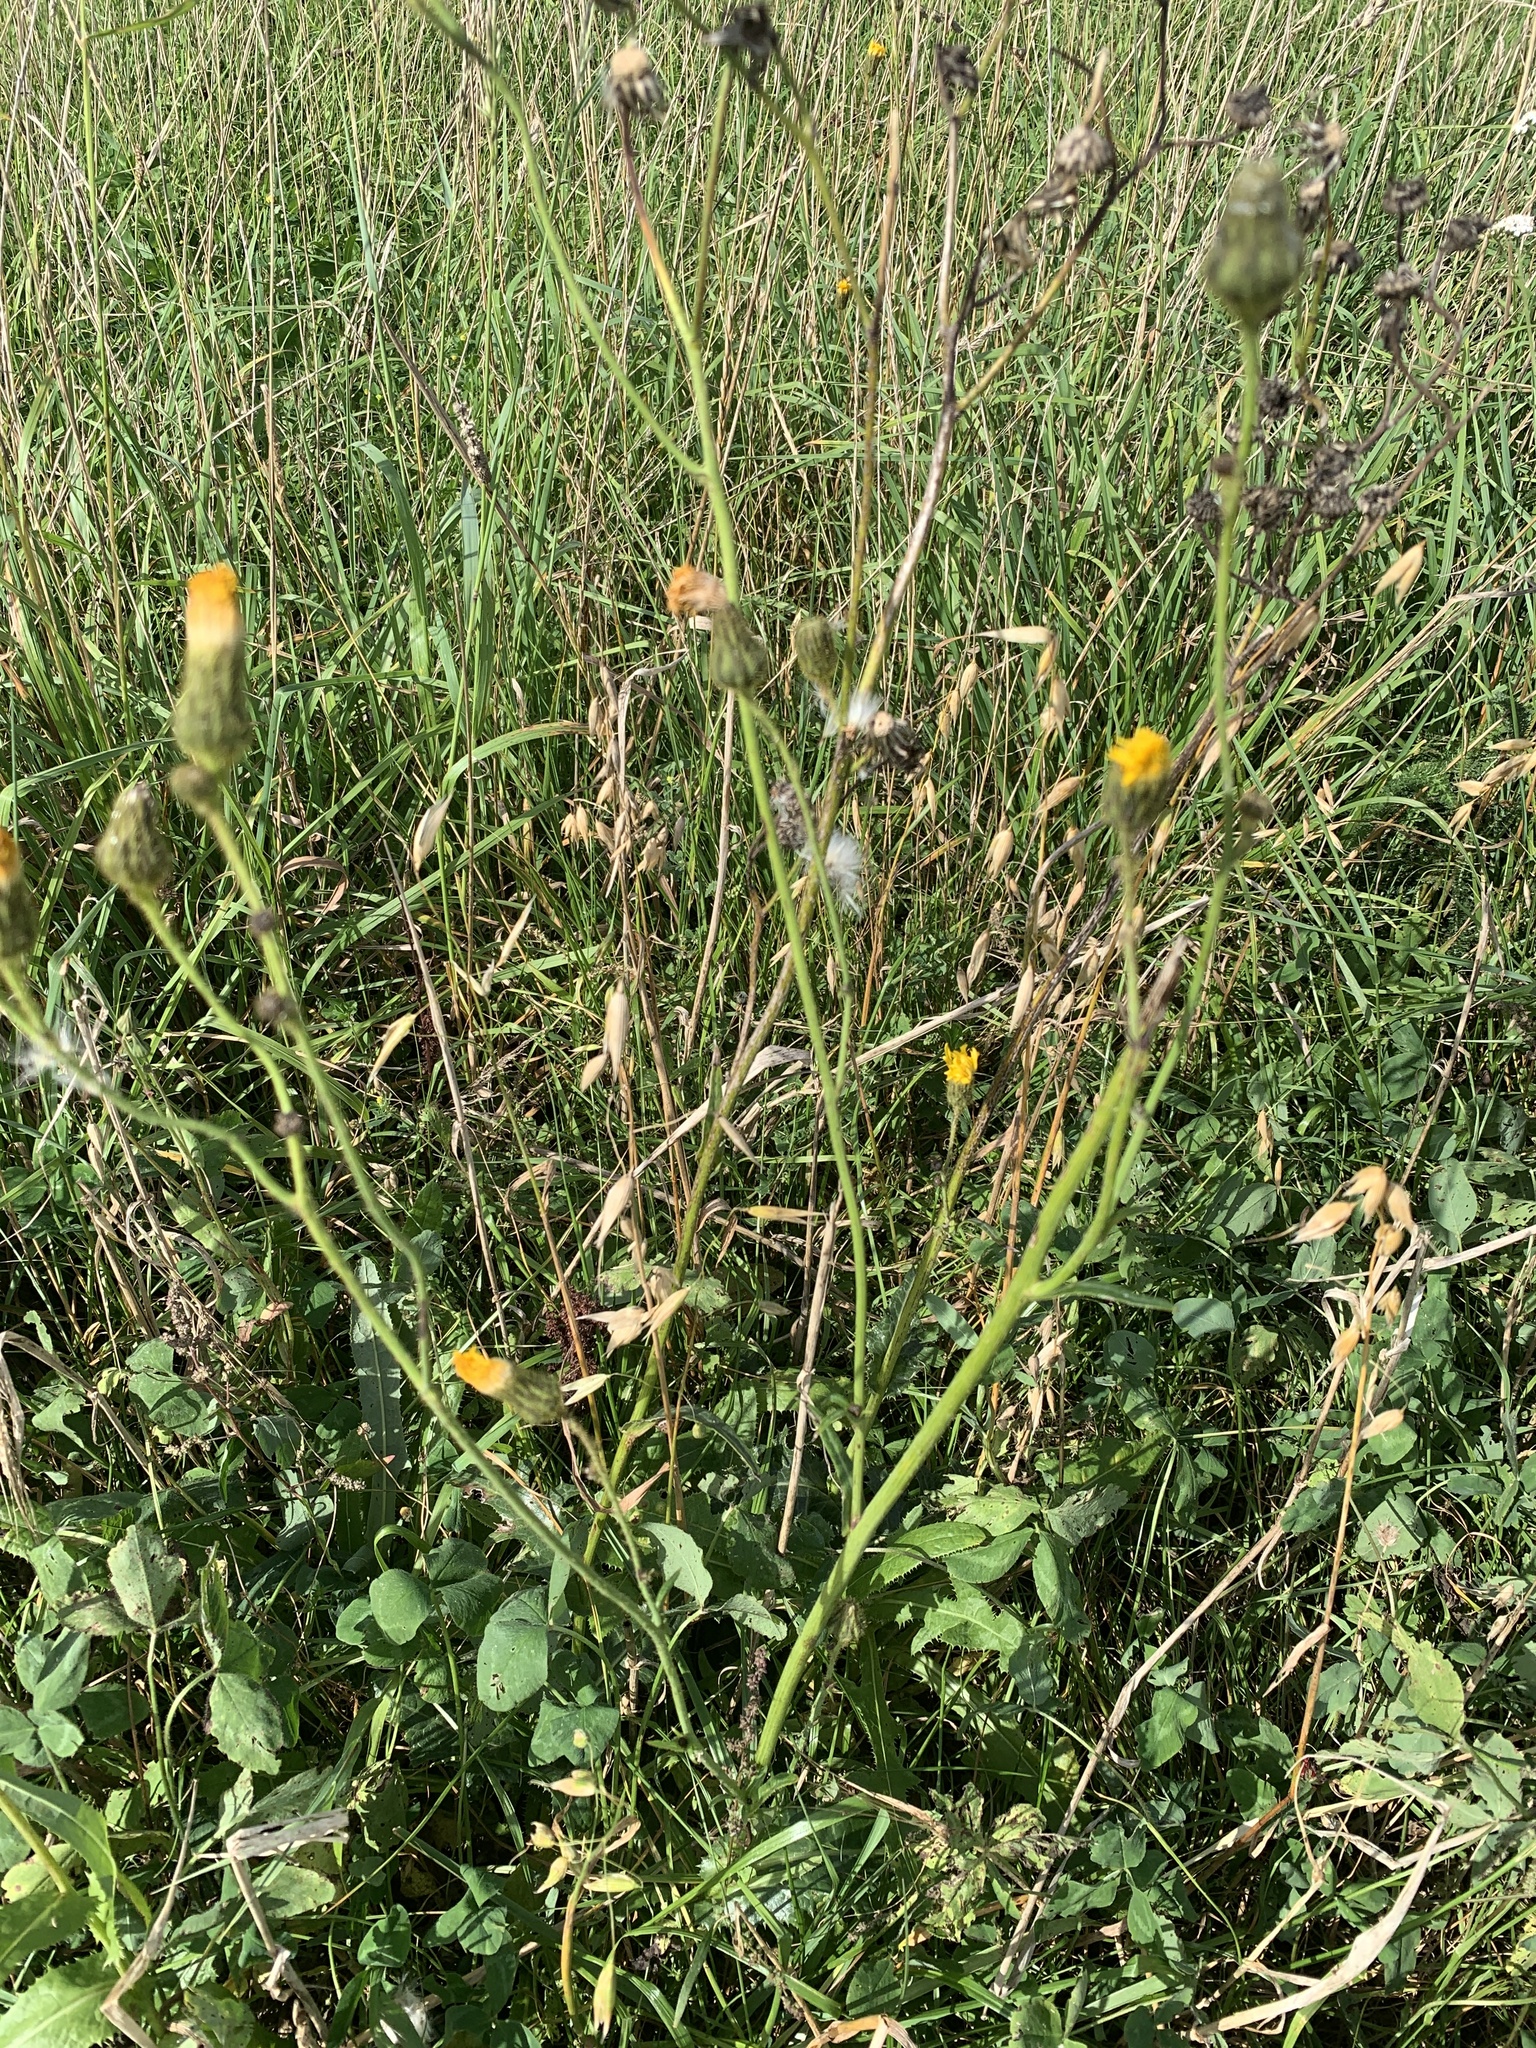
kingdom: Plantae
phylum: Tracheophyta
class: Magnoliopsida
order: Asterales
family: Asteraceae
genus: Sonchus
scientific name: Sonchus arvensis
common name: Perennial sow-thistle
